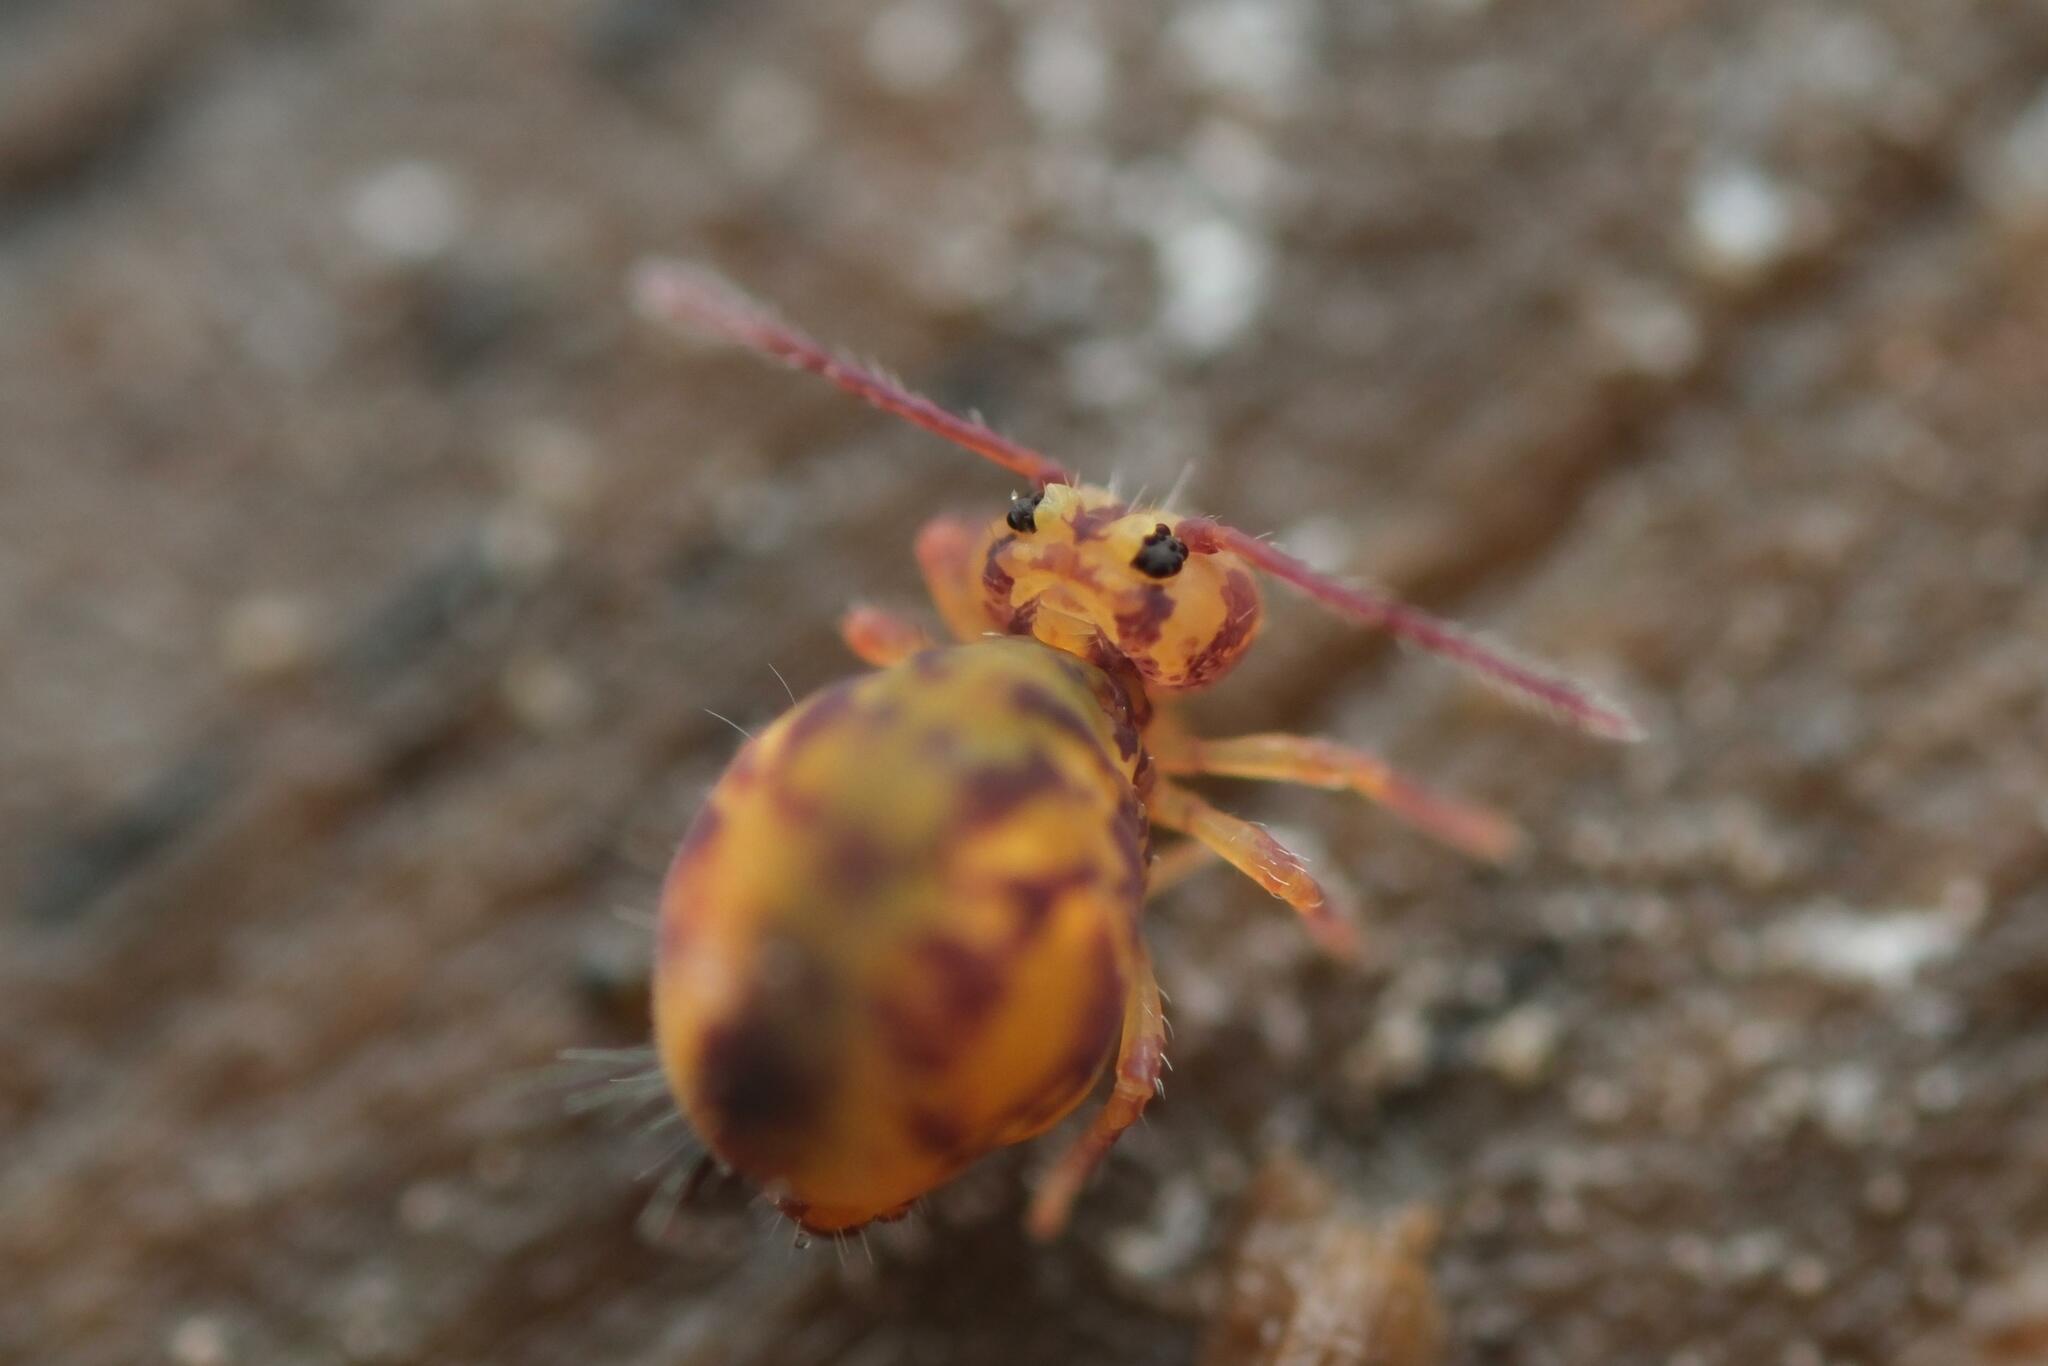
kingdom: Animalia
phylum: Arthropoda
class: Collembola
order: Symphypleona
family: Dicyrtomidae
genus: Dicyrtomina
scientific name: Dicyrtomina ornata
